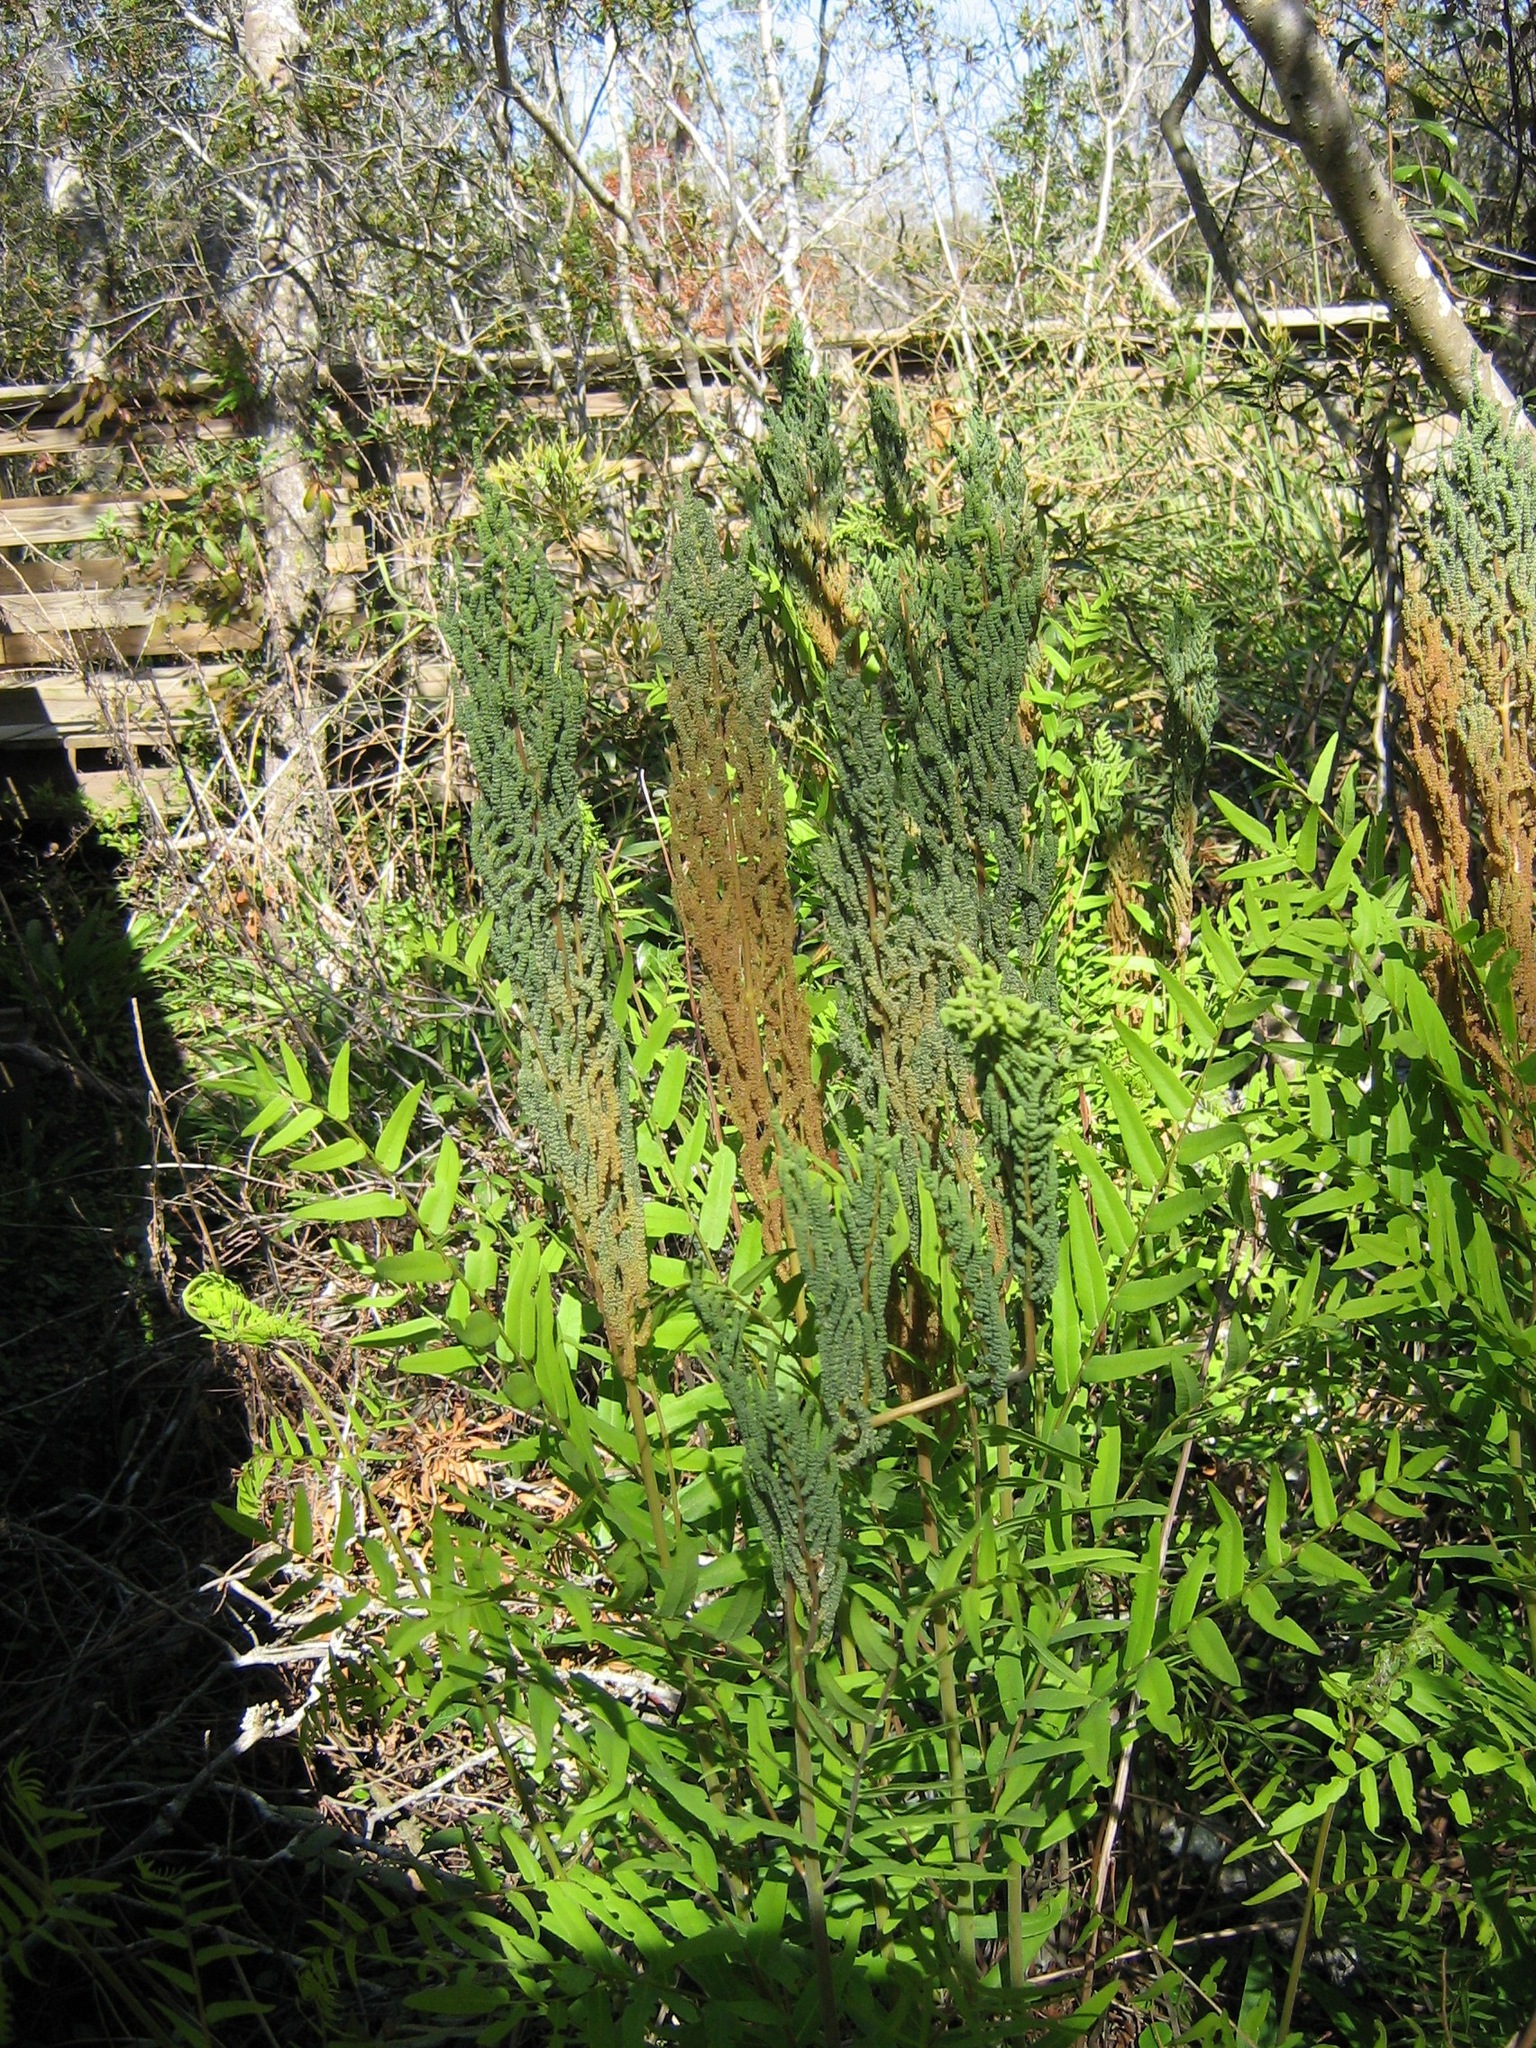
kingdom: Plantae
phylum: Tracheophyta
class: Polypodiopsida
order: Osmundales
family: Osmundaceae
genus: Osmunda
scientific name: Osmunda spectabilis
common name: American royal fern
